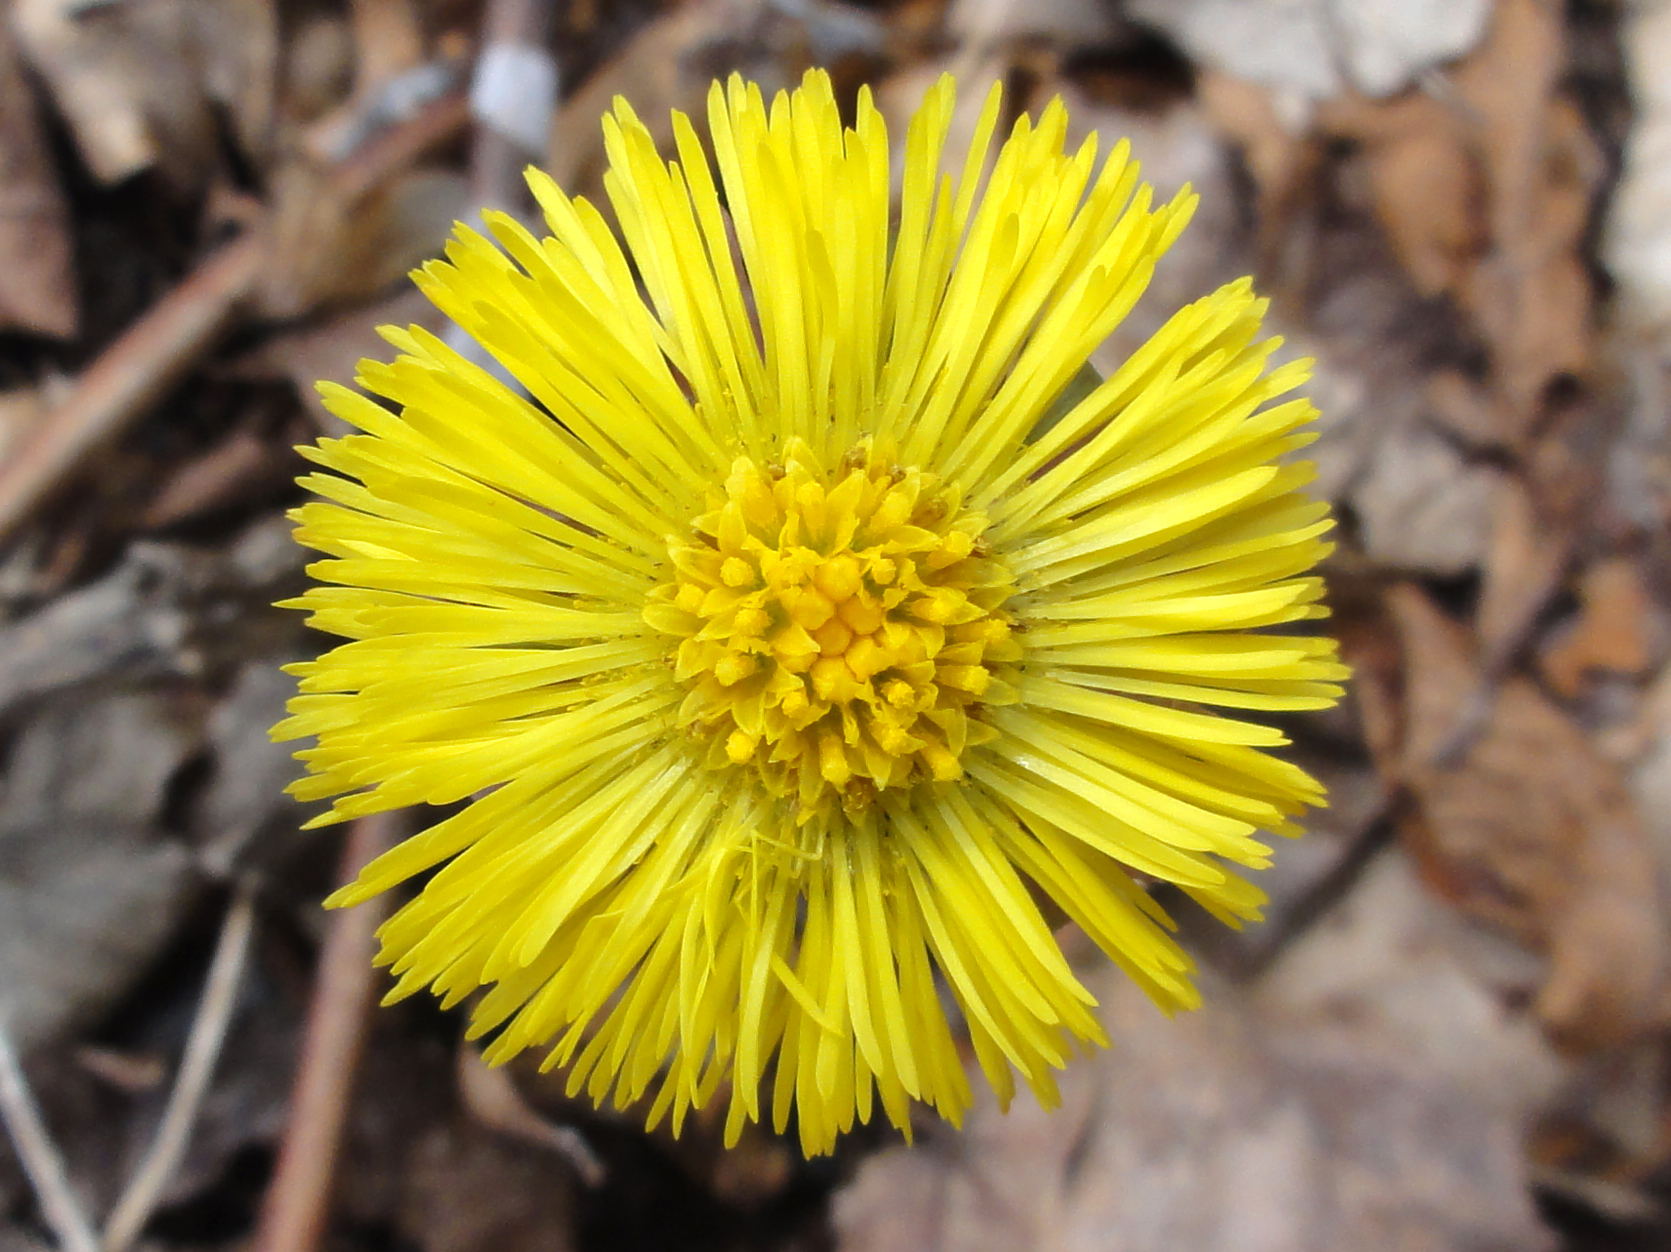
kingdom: Plantae
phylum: Tracheophyta
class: Magnoliopsida
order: Asterales
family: Asteraceae
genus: Tussilago
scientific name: Tussilago farfara
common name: Coltsfoot
